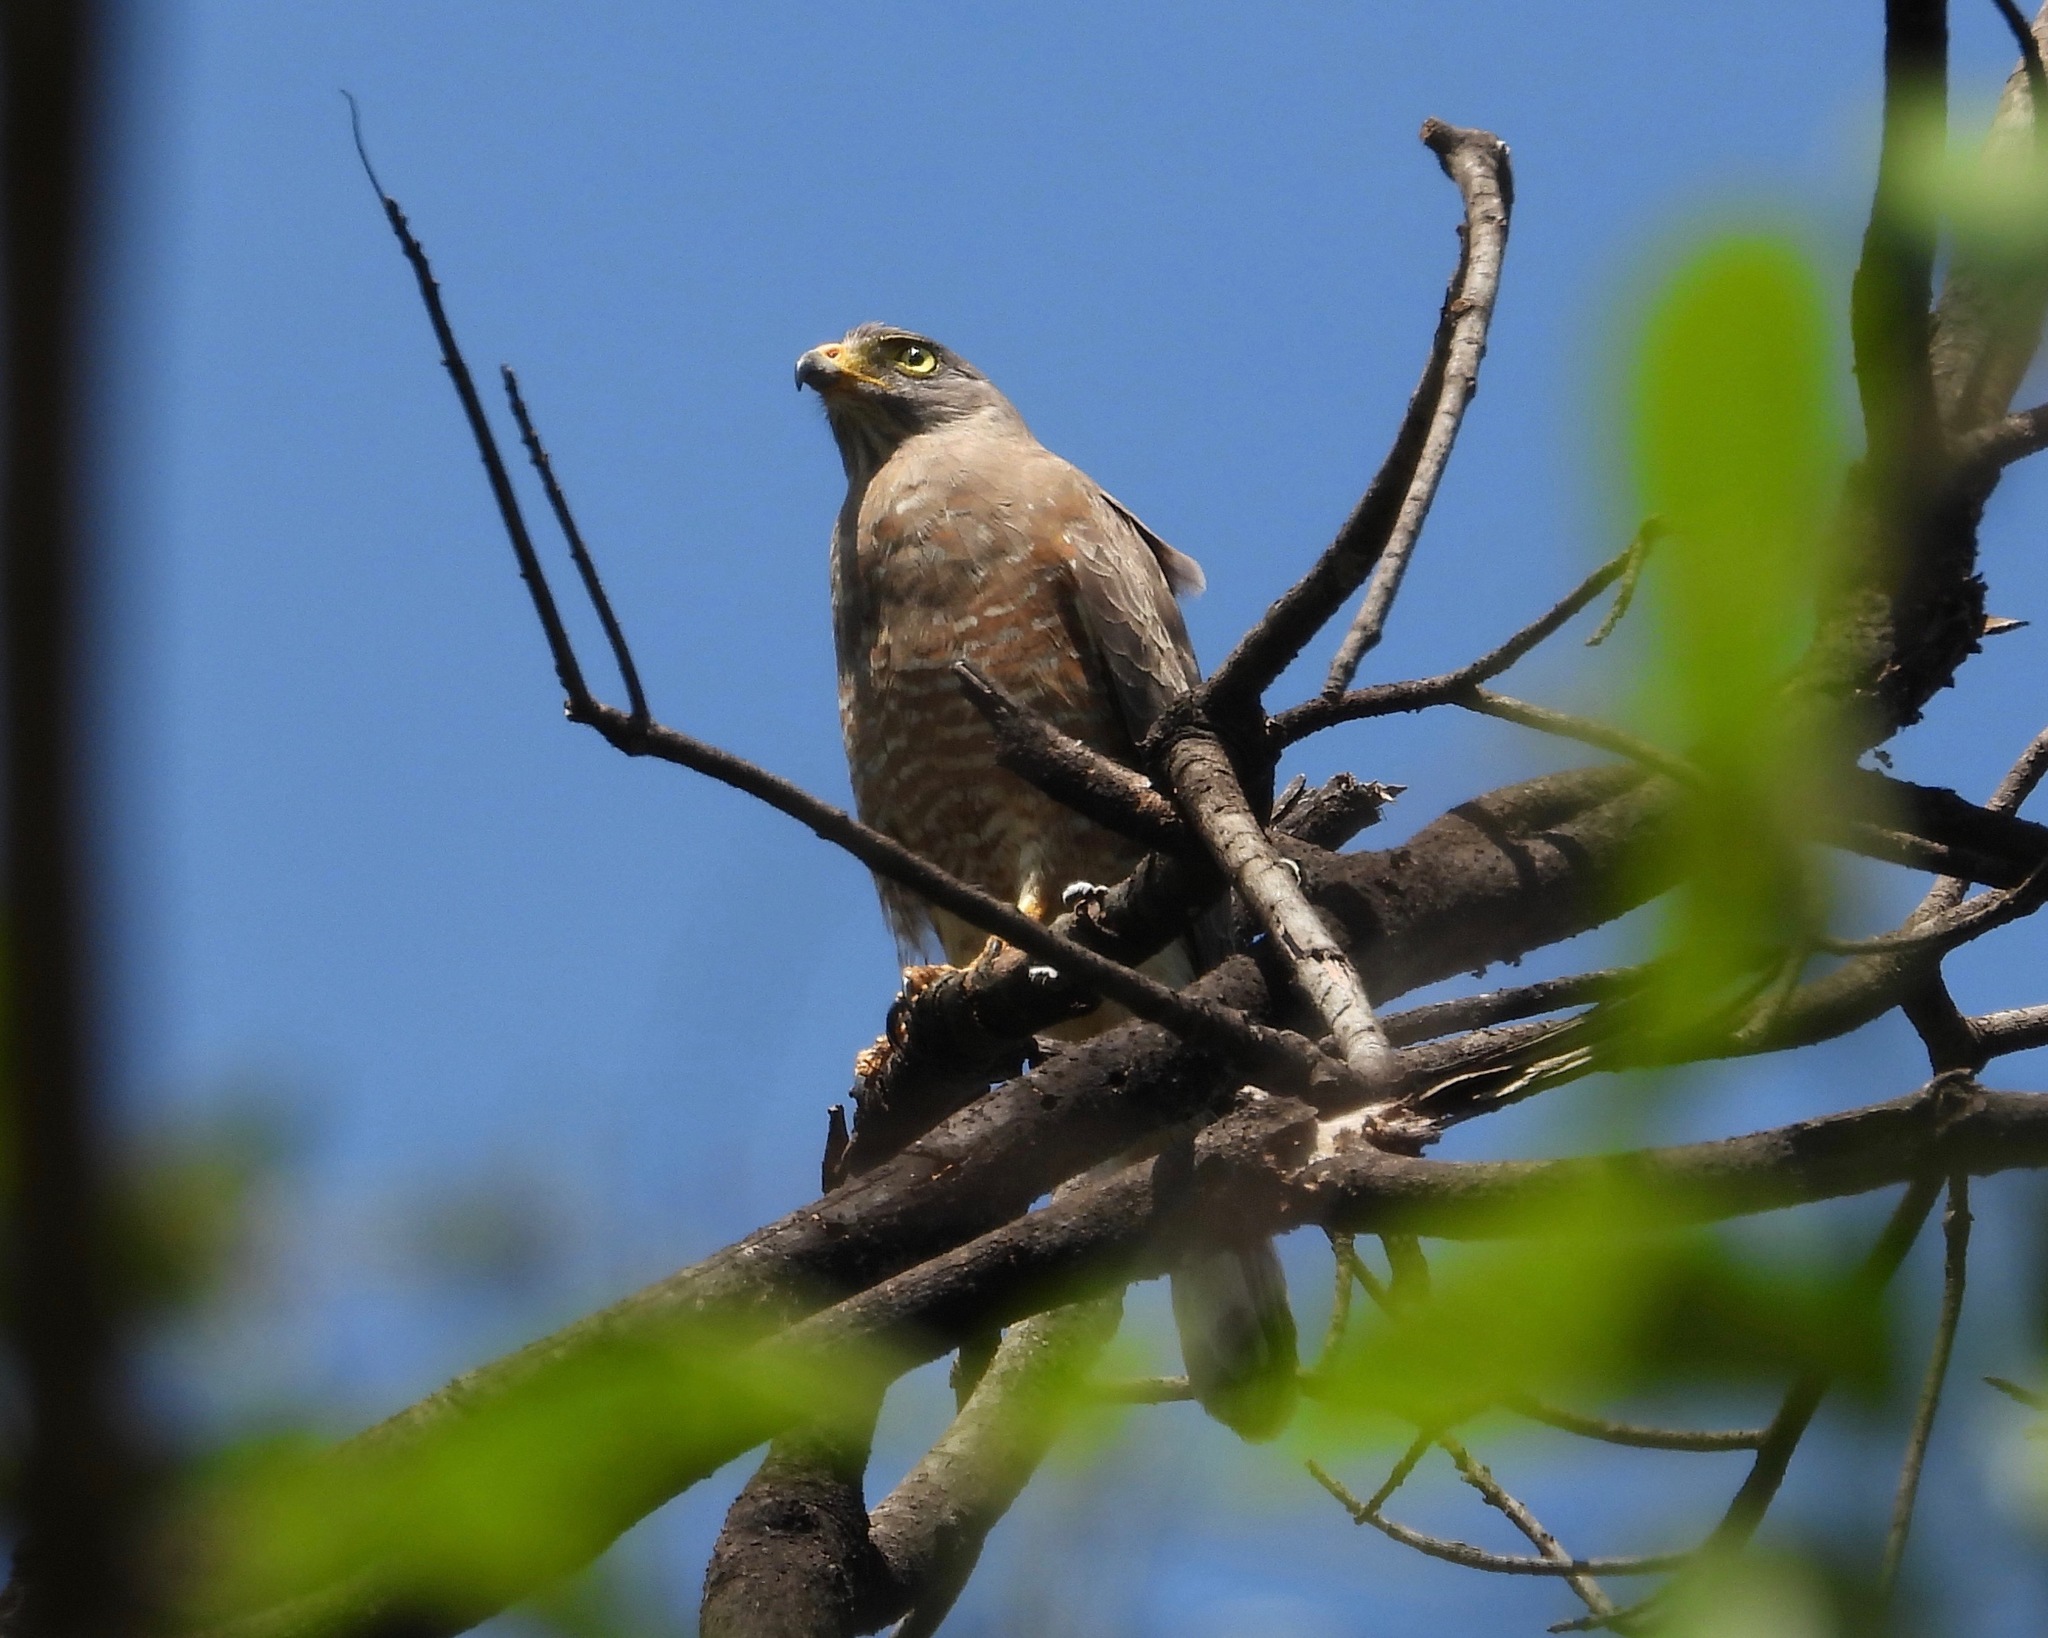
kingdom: Animalia
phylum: Chordata
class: Aves
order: Accipitriformes
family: Accipitridae
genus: Rupornis
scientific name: Rupornis magnirostris
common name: Roadside hawk
